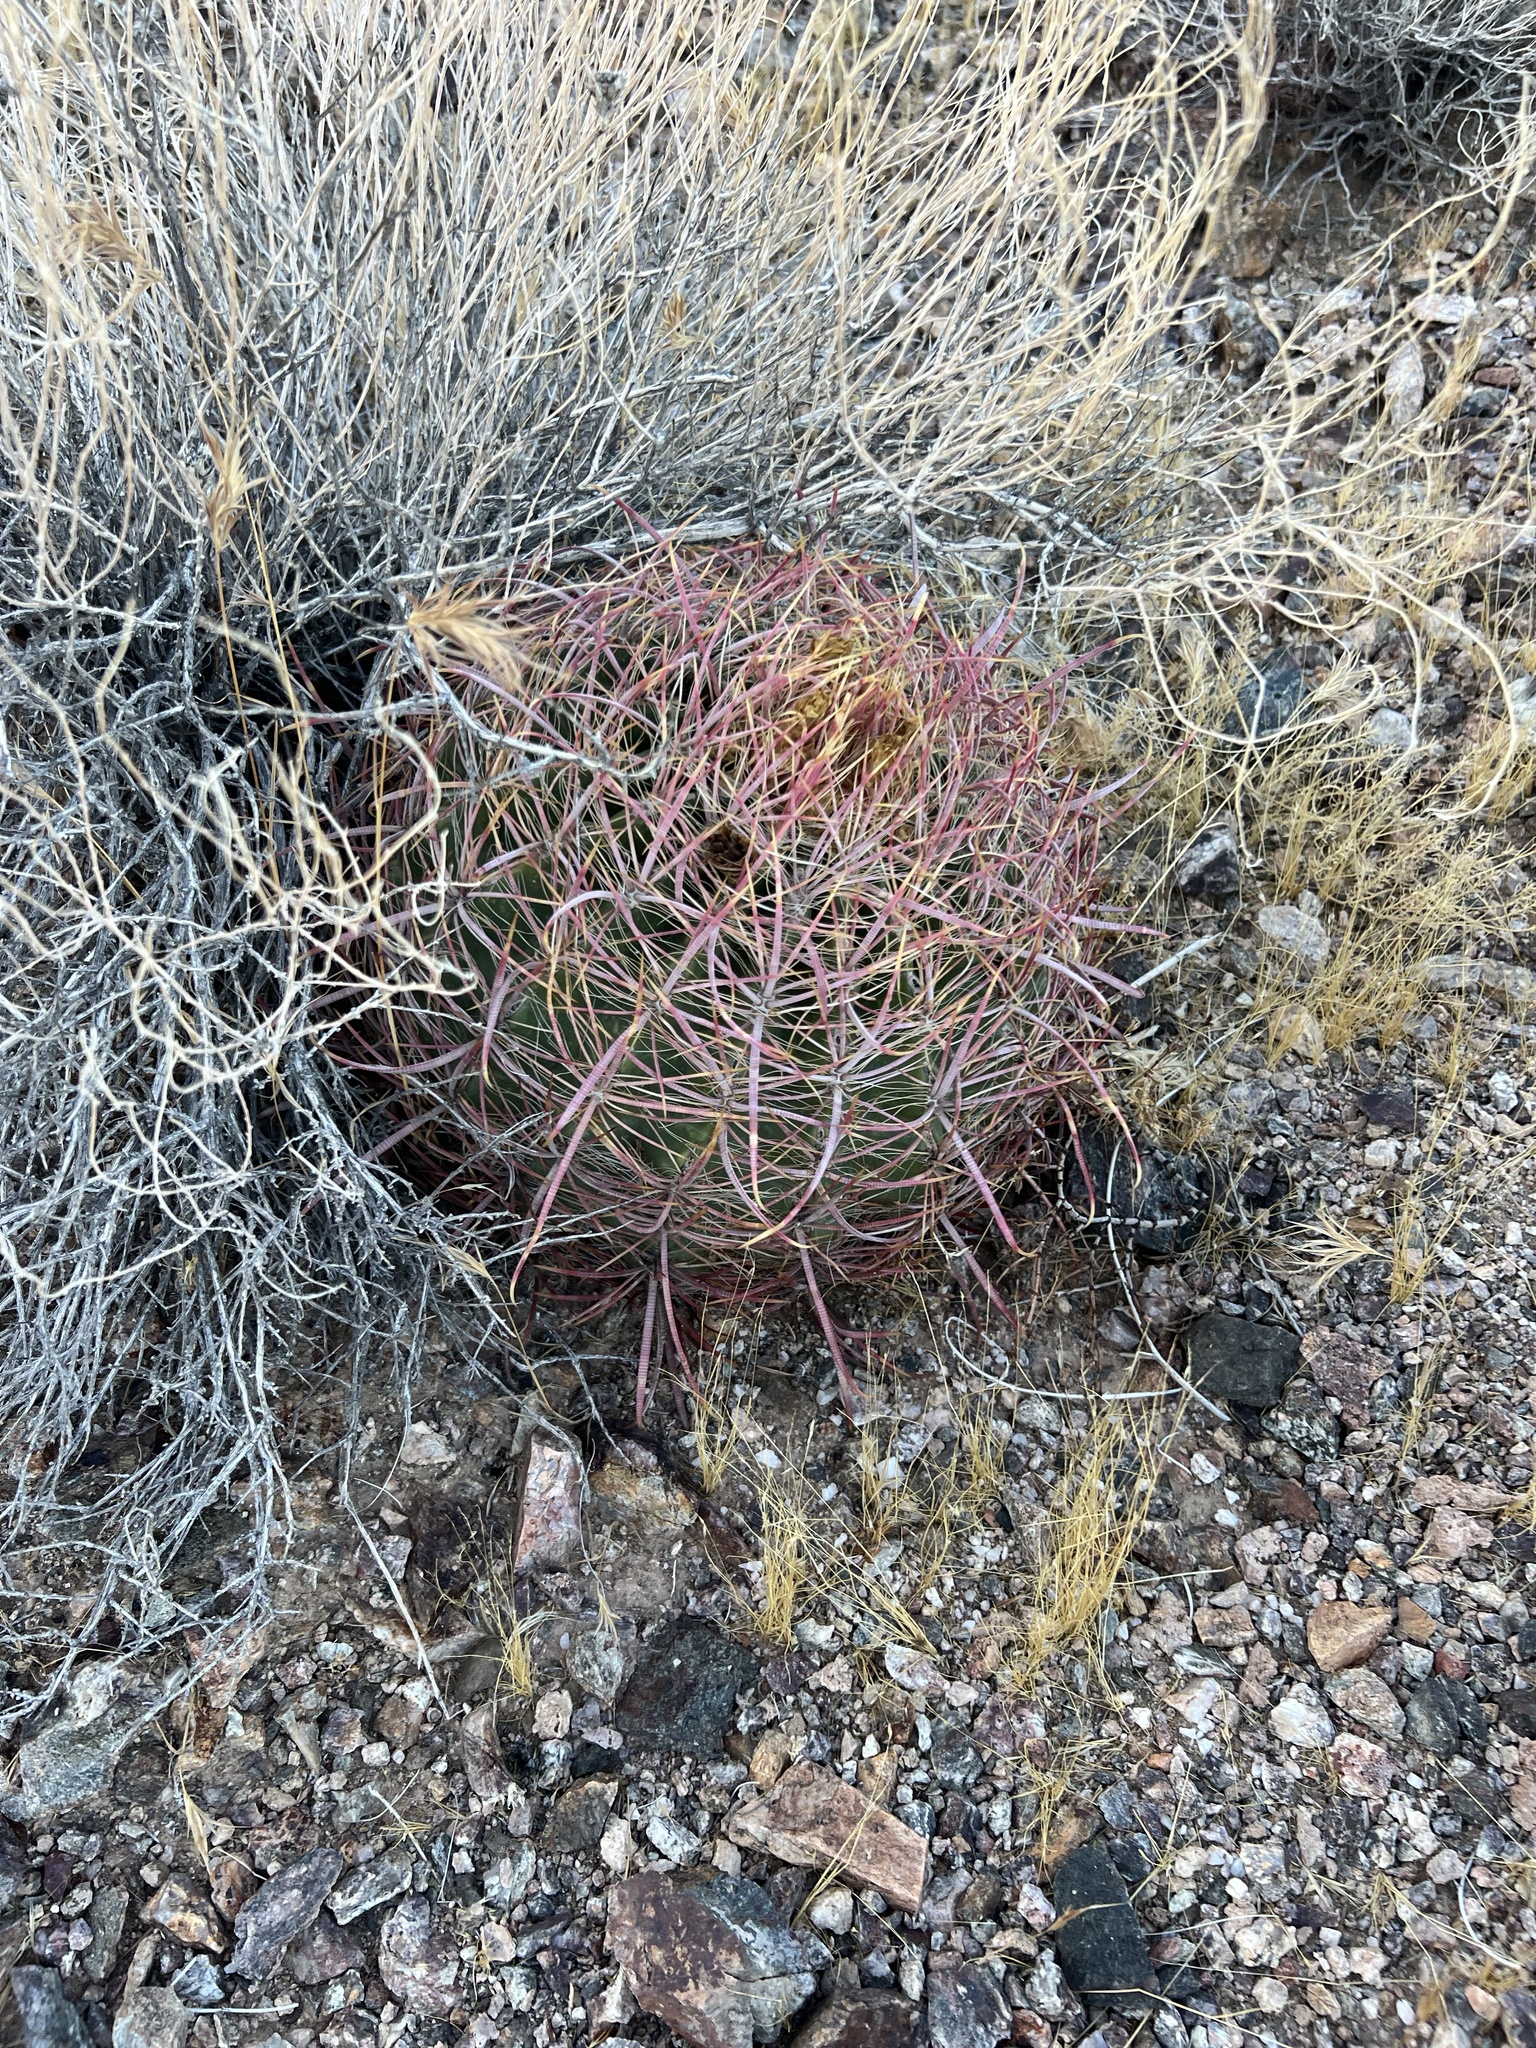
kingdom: Plantae
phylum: Tracheophyta
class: Magnoliopsida
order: Caryophyllales
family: Cactaceae
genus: Ferocactus
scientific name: Ferocactus cylindraceus
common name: California barrel cactus
